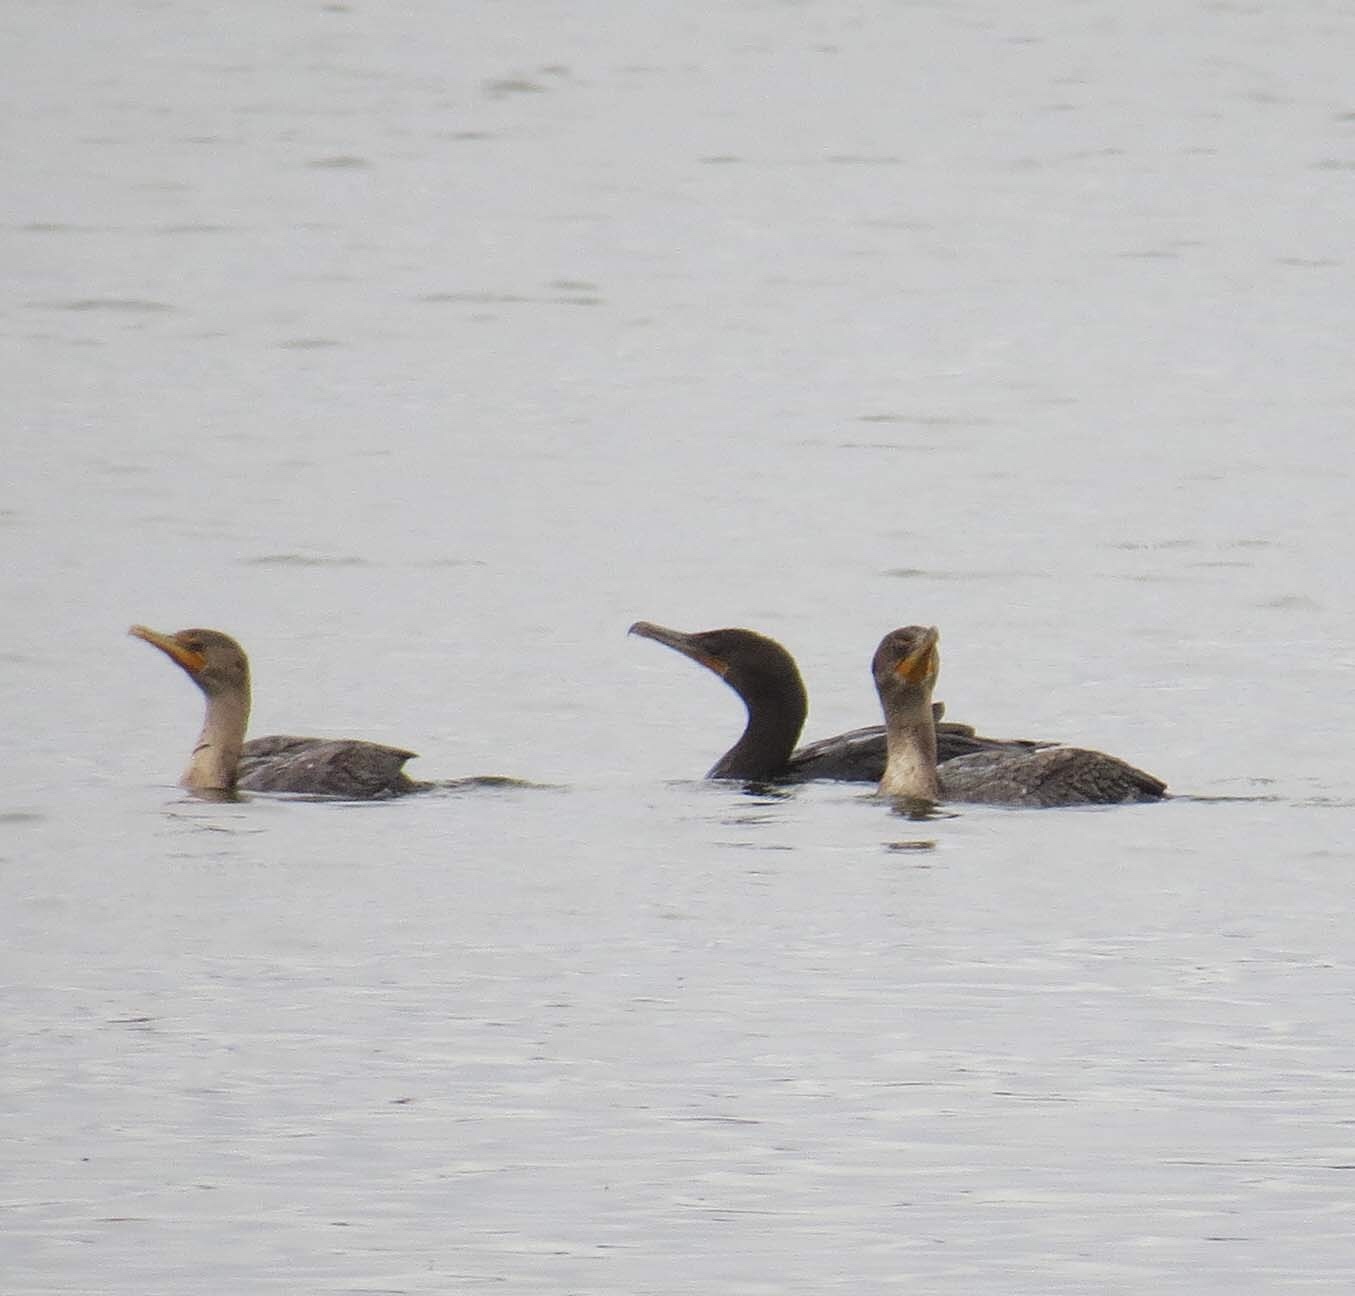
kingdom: Animalia
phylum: Chordata
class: Aves
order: Suliformes
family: Phalacrocoracidae
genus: Phalacrocorax
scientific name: Phalacrocorax auritus
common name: Double-crested cormorant
